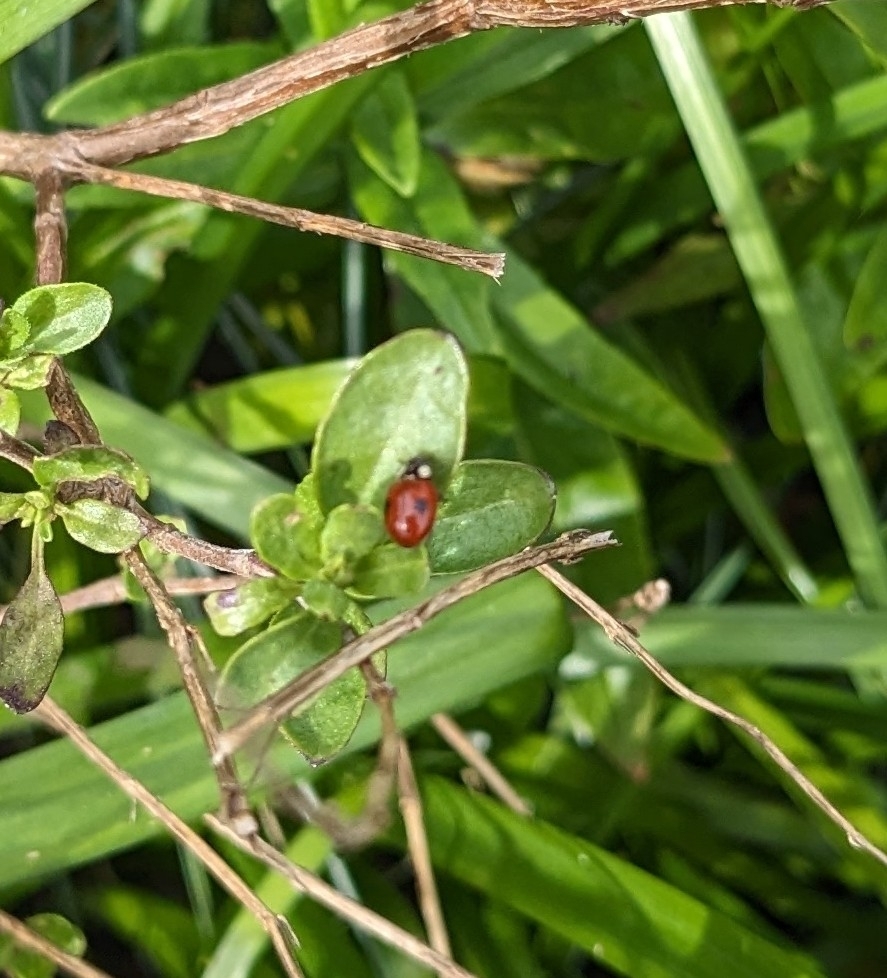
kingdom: Animalia
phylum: Arthropoda
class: Insecta
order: Coleoptera
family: Coccinellidae
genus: Adalia
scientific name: Adalia bipunctata
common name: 2-spot ladybird
